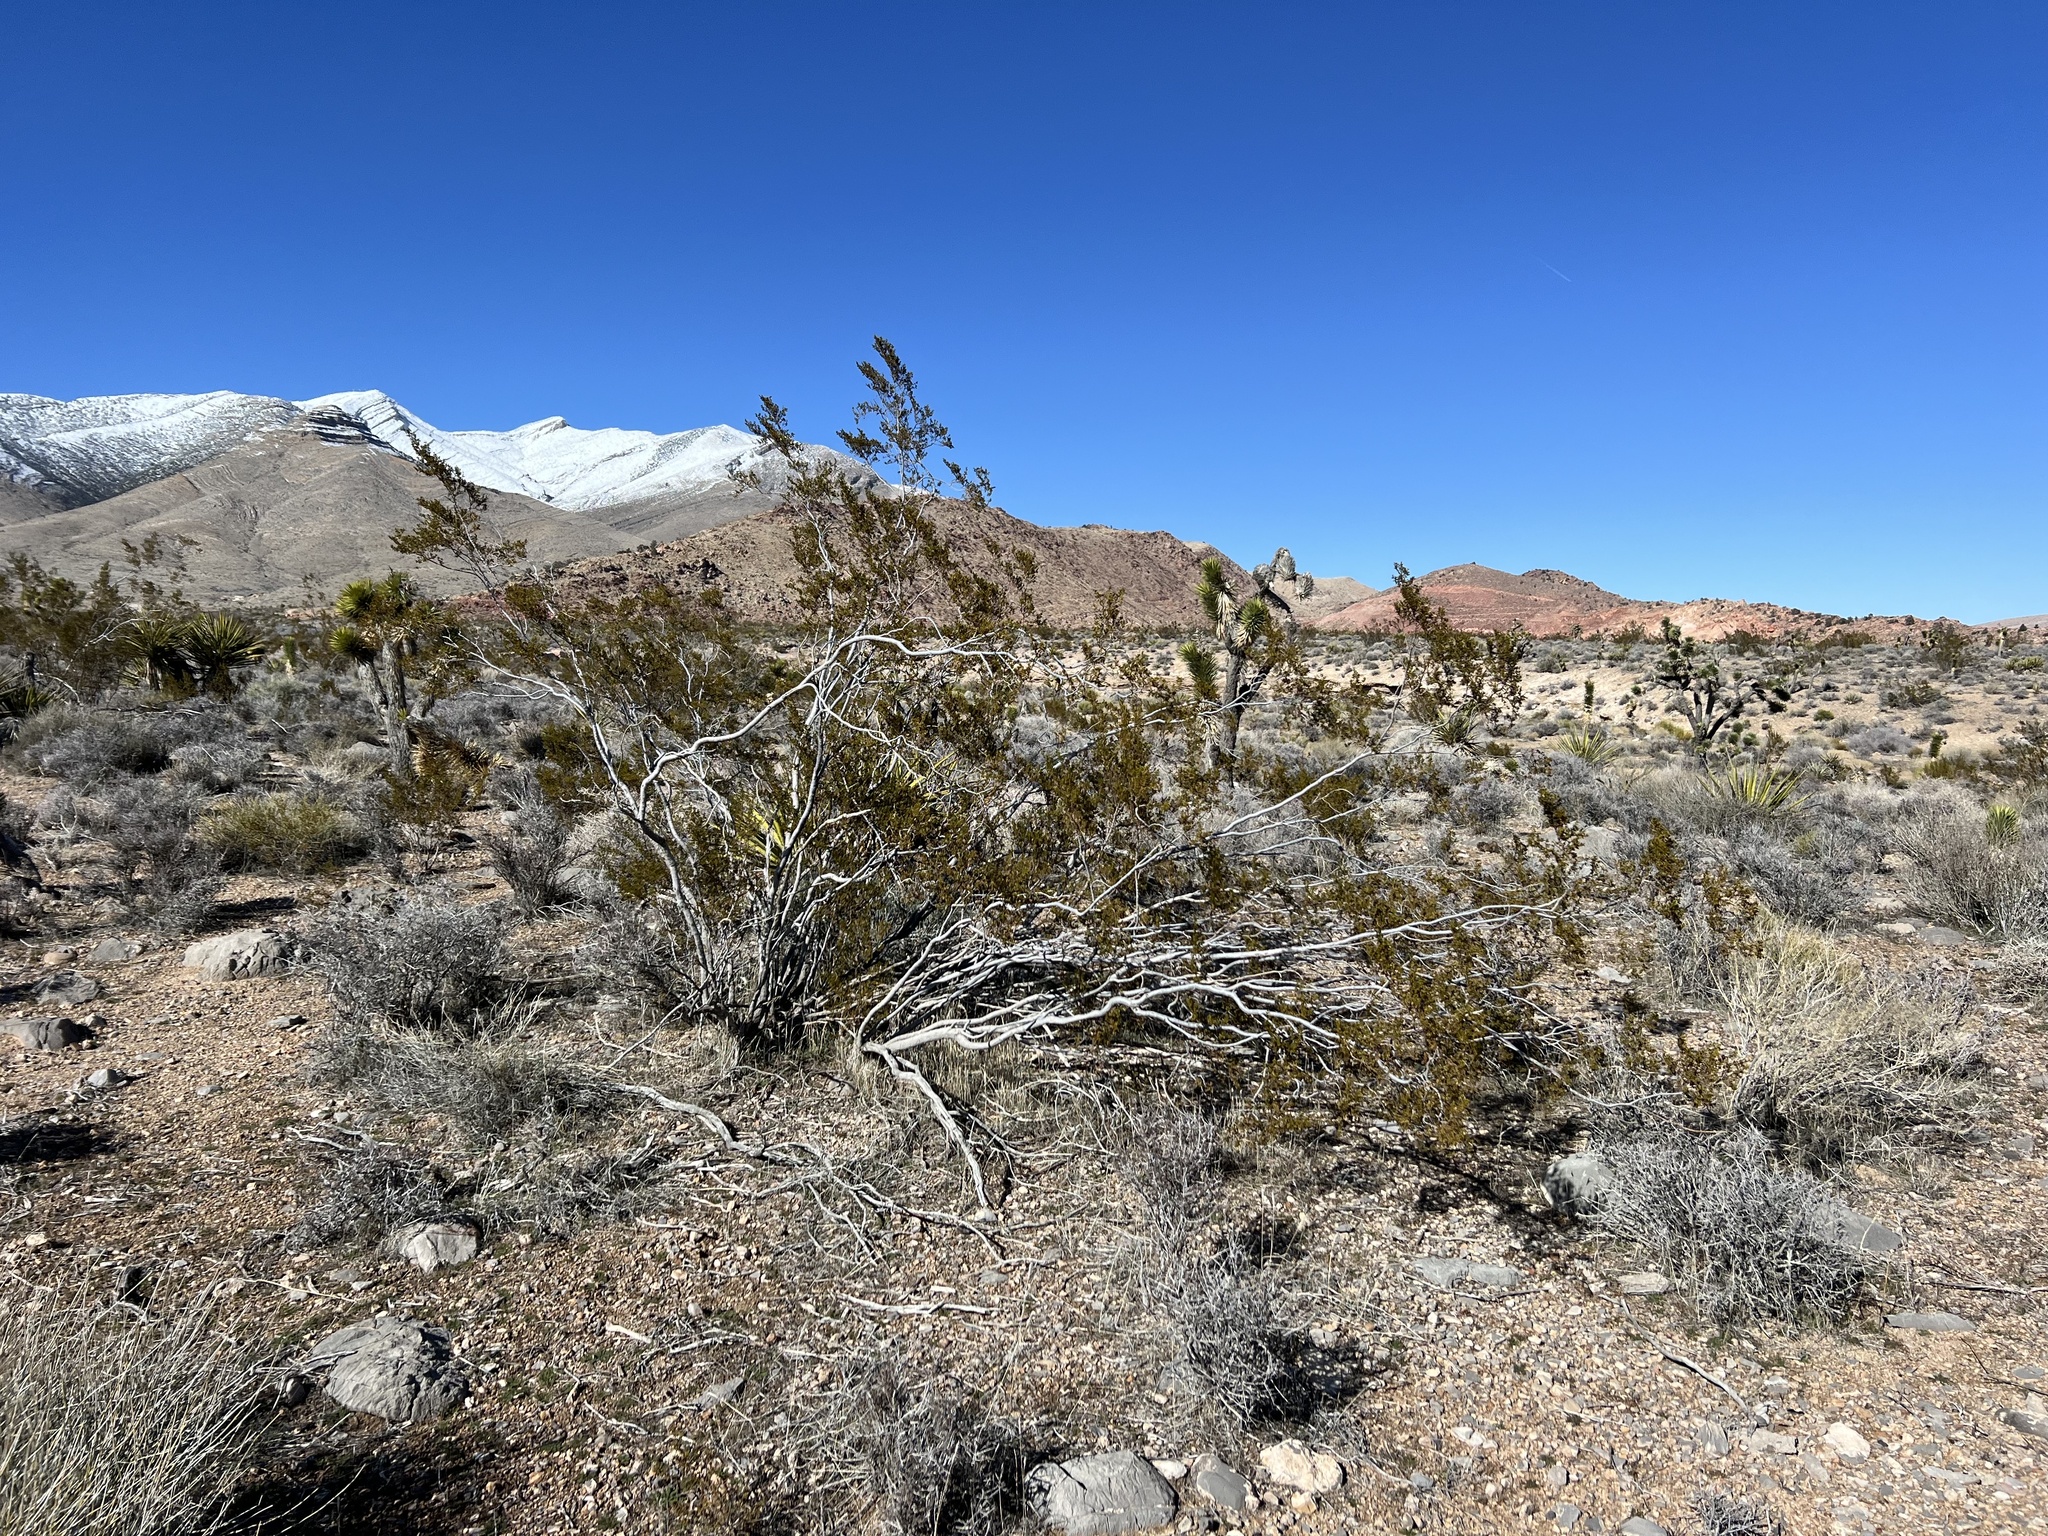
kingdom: Plantae
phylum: Tracheophyta
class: Magnoliopsida
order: Zygophyllales
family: Zygophyllaceae
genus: Larrea
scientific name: Larrea tridentata
